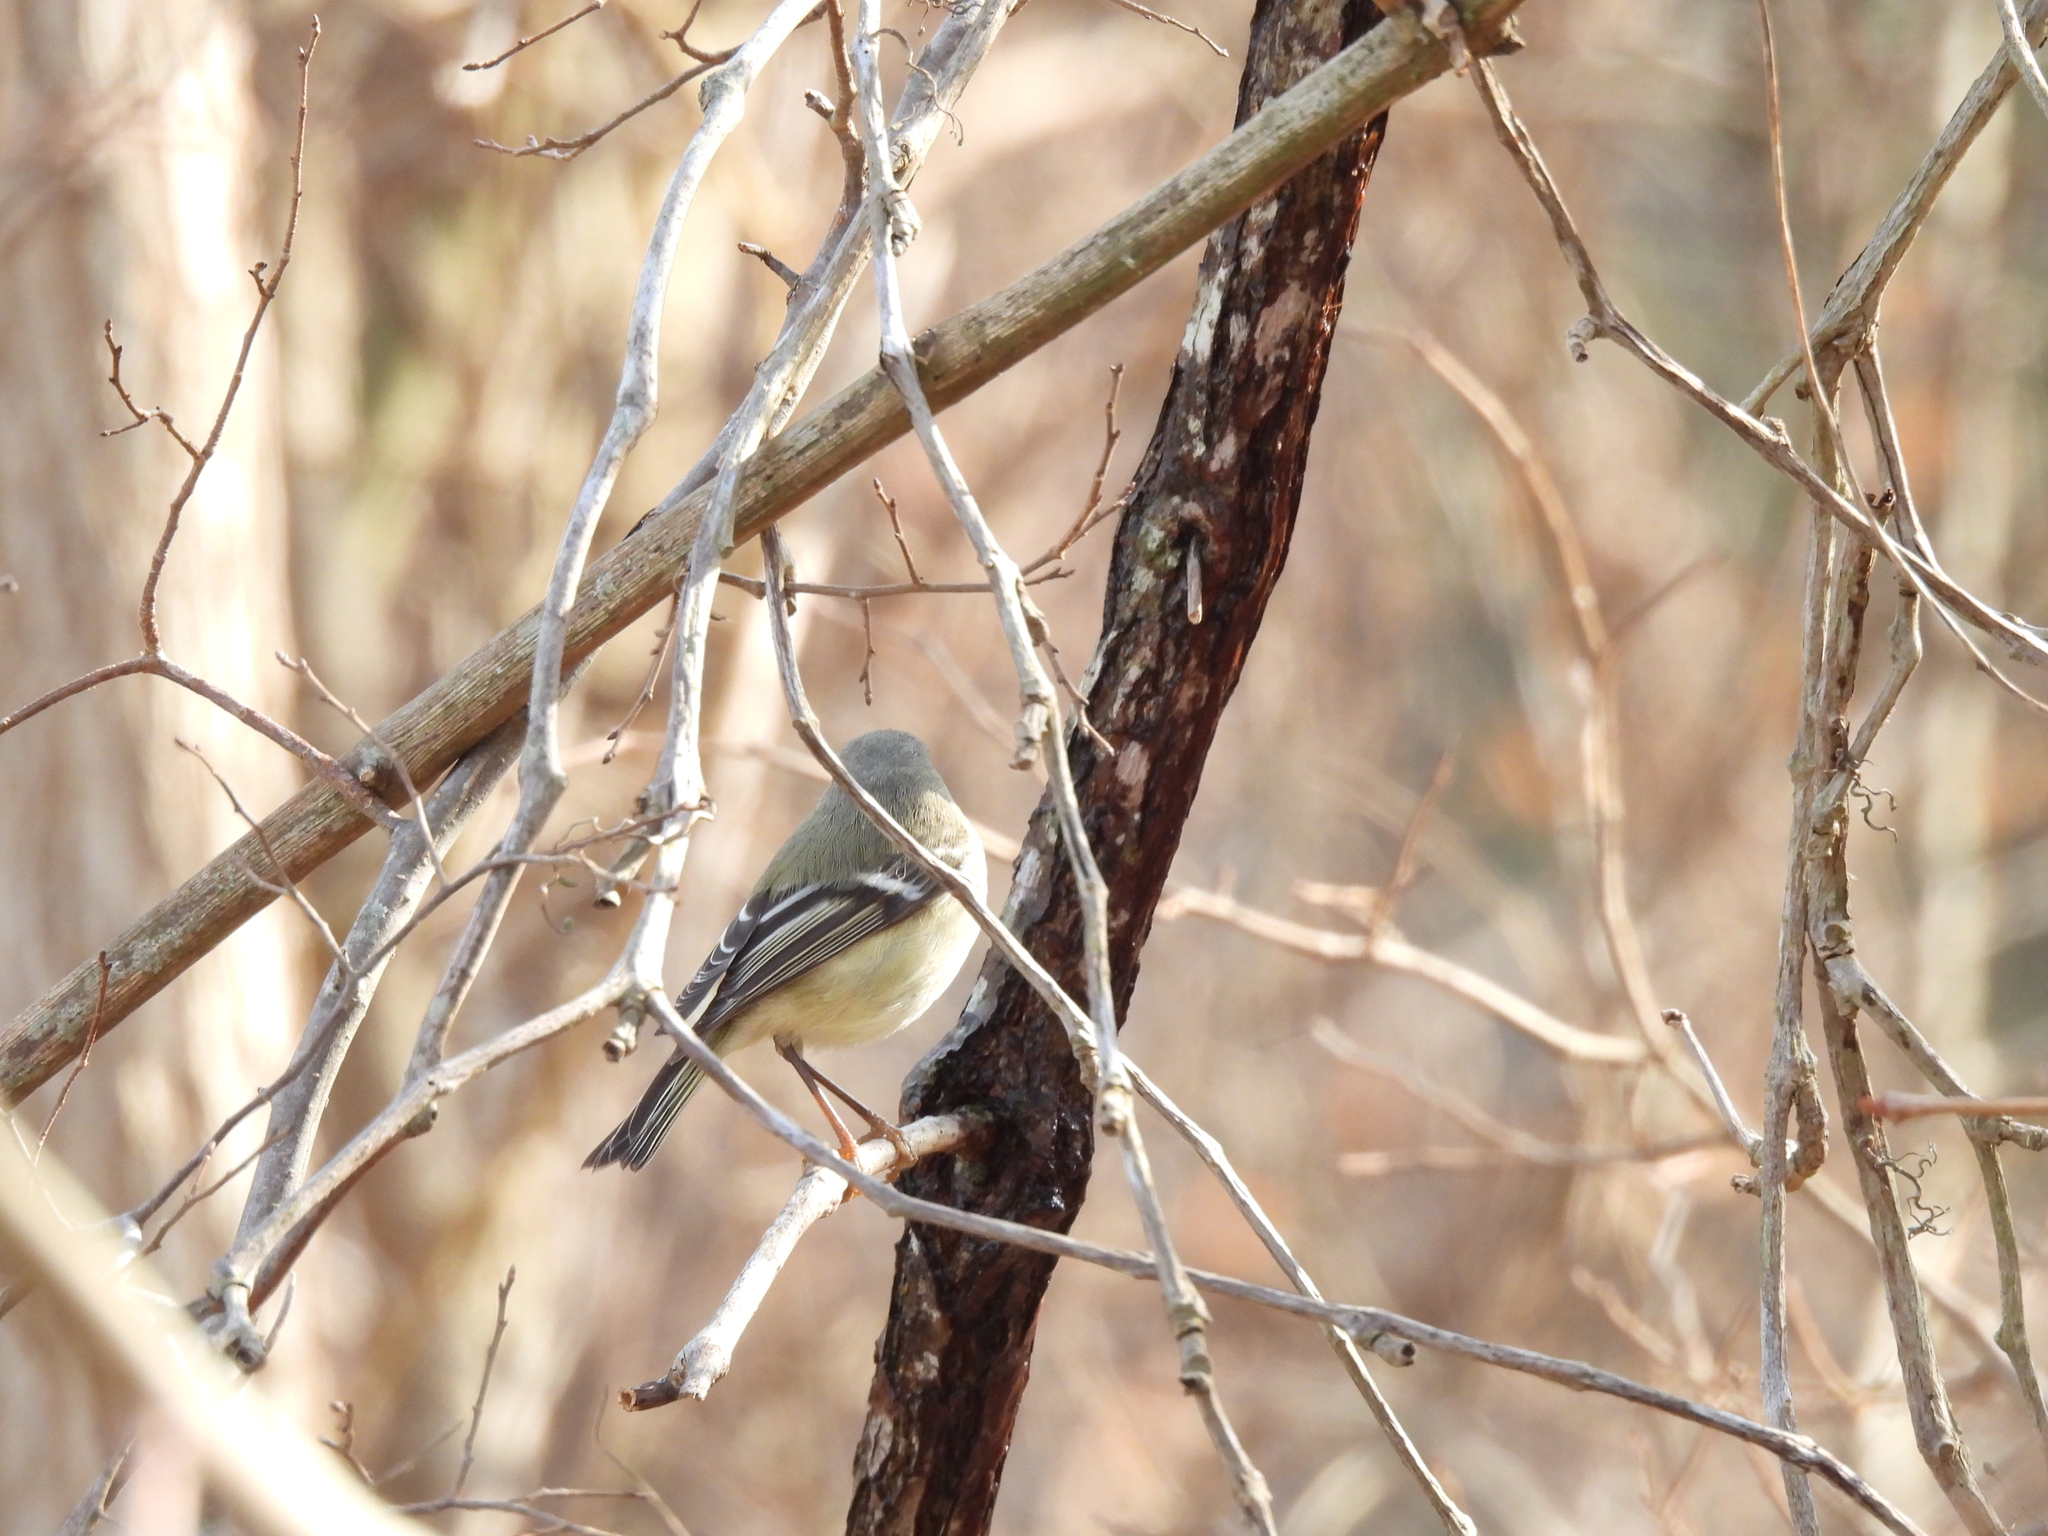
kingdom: Animalia
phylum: Chordata
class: Aves
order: Passeriformes
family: Regulidae
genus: Regulus
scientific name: Regulus calendula
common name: Ruby-crowned kinglet
